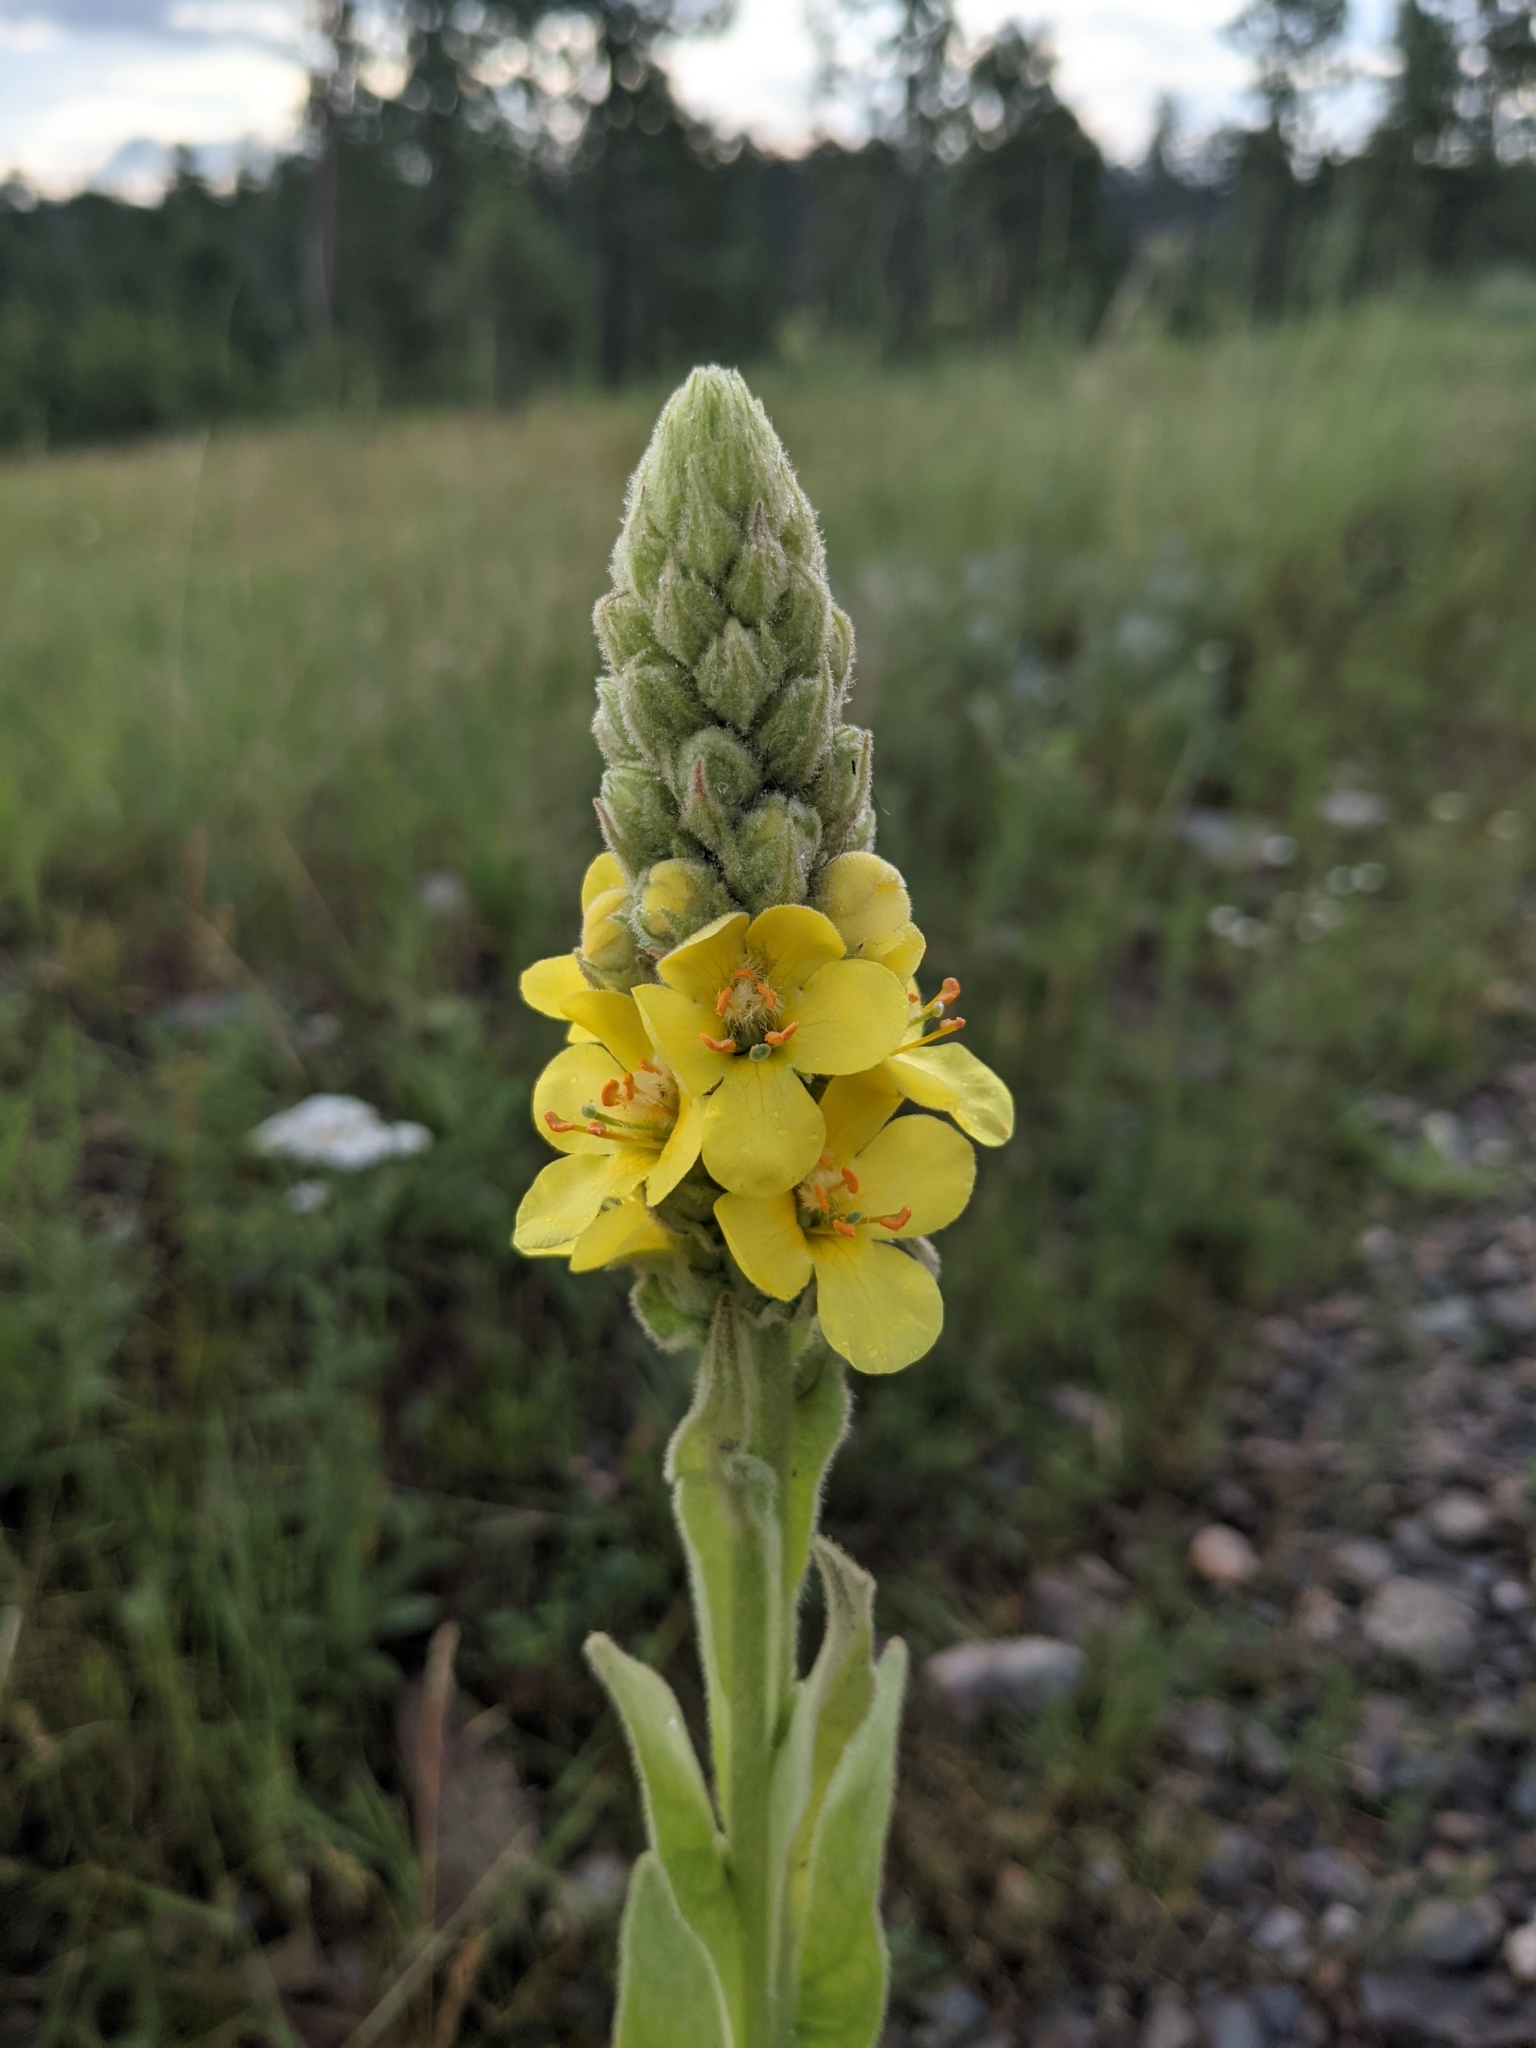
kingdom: Plantae
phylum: Tracheophyta
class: Magnoliopsida
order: Lamiales
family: Scrophulariaceae
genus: Verbascum
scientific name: Verbascum thapsus
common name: Common mullein
